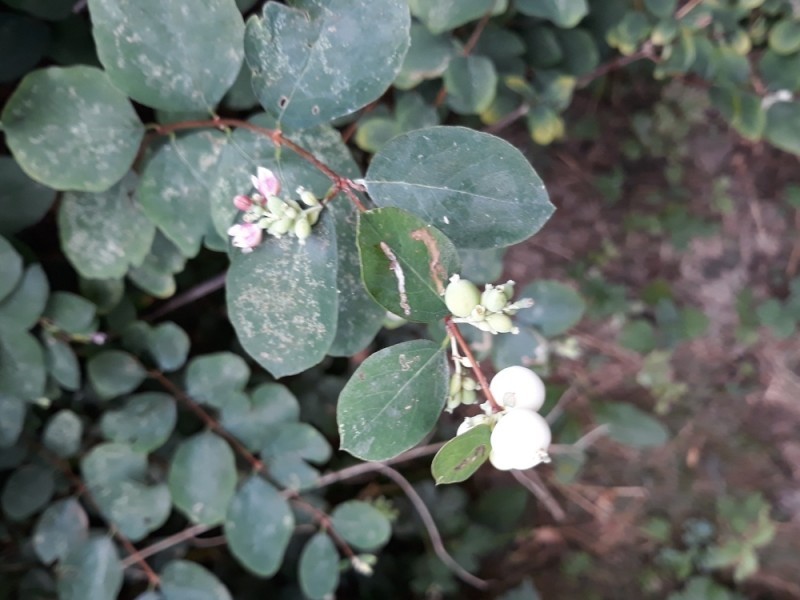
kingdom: Plantae
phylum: Tracheophyta
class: Magnoliopsida
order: Dipsacales
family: Caprifoliaceae
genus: Symphoricarpos
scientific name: Symphoricarpos albus
